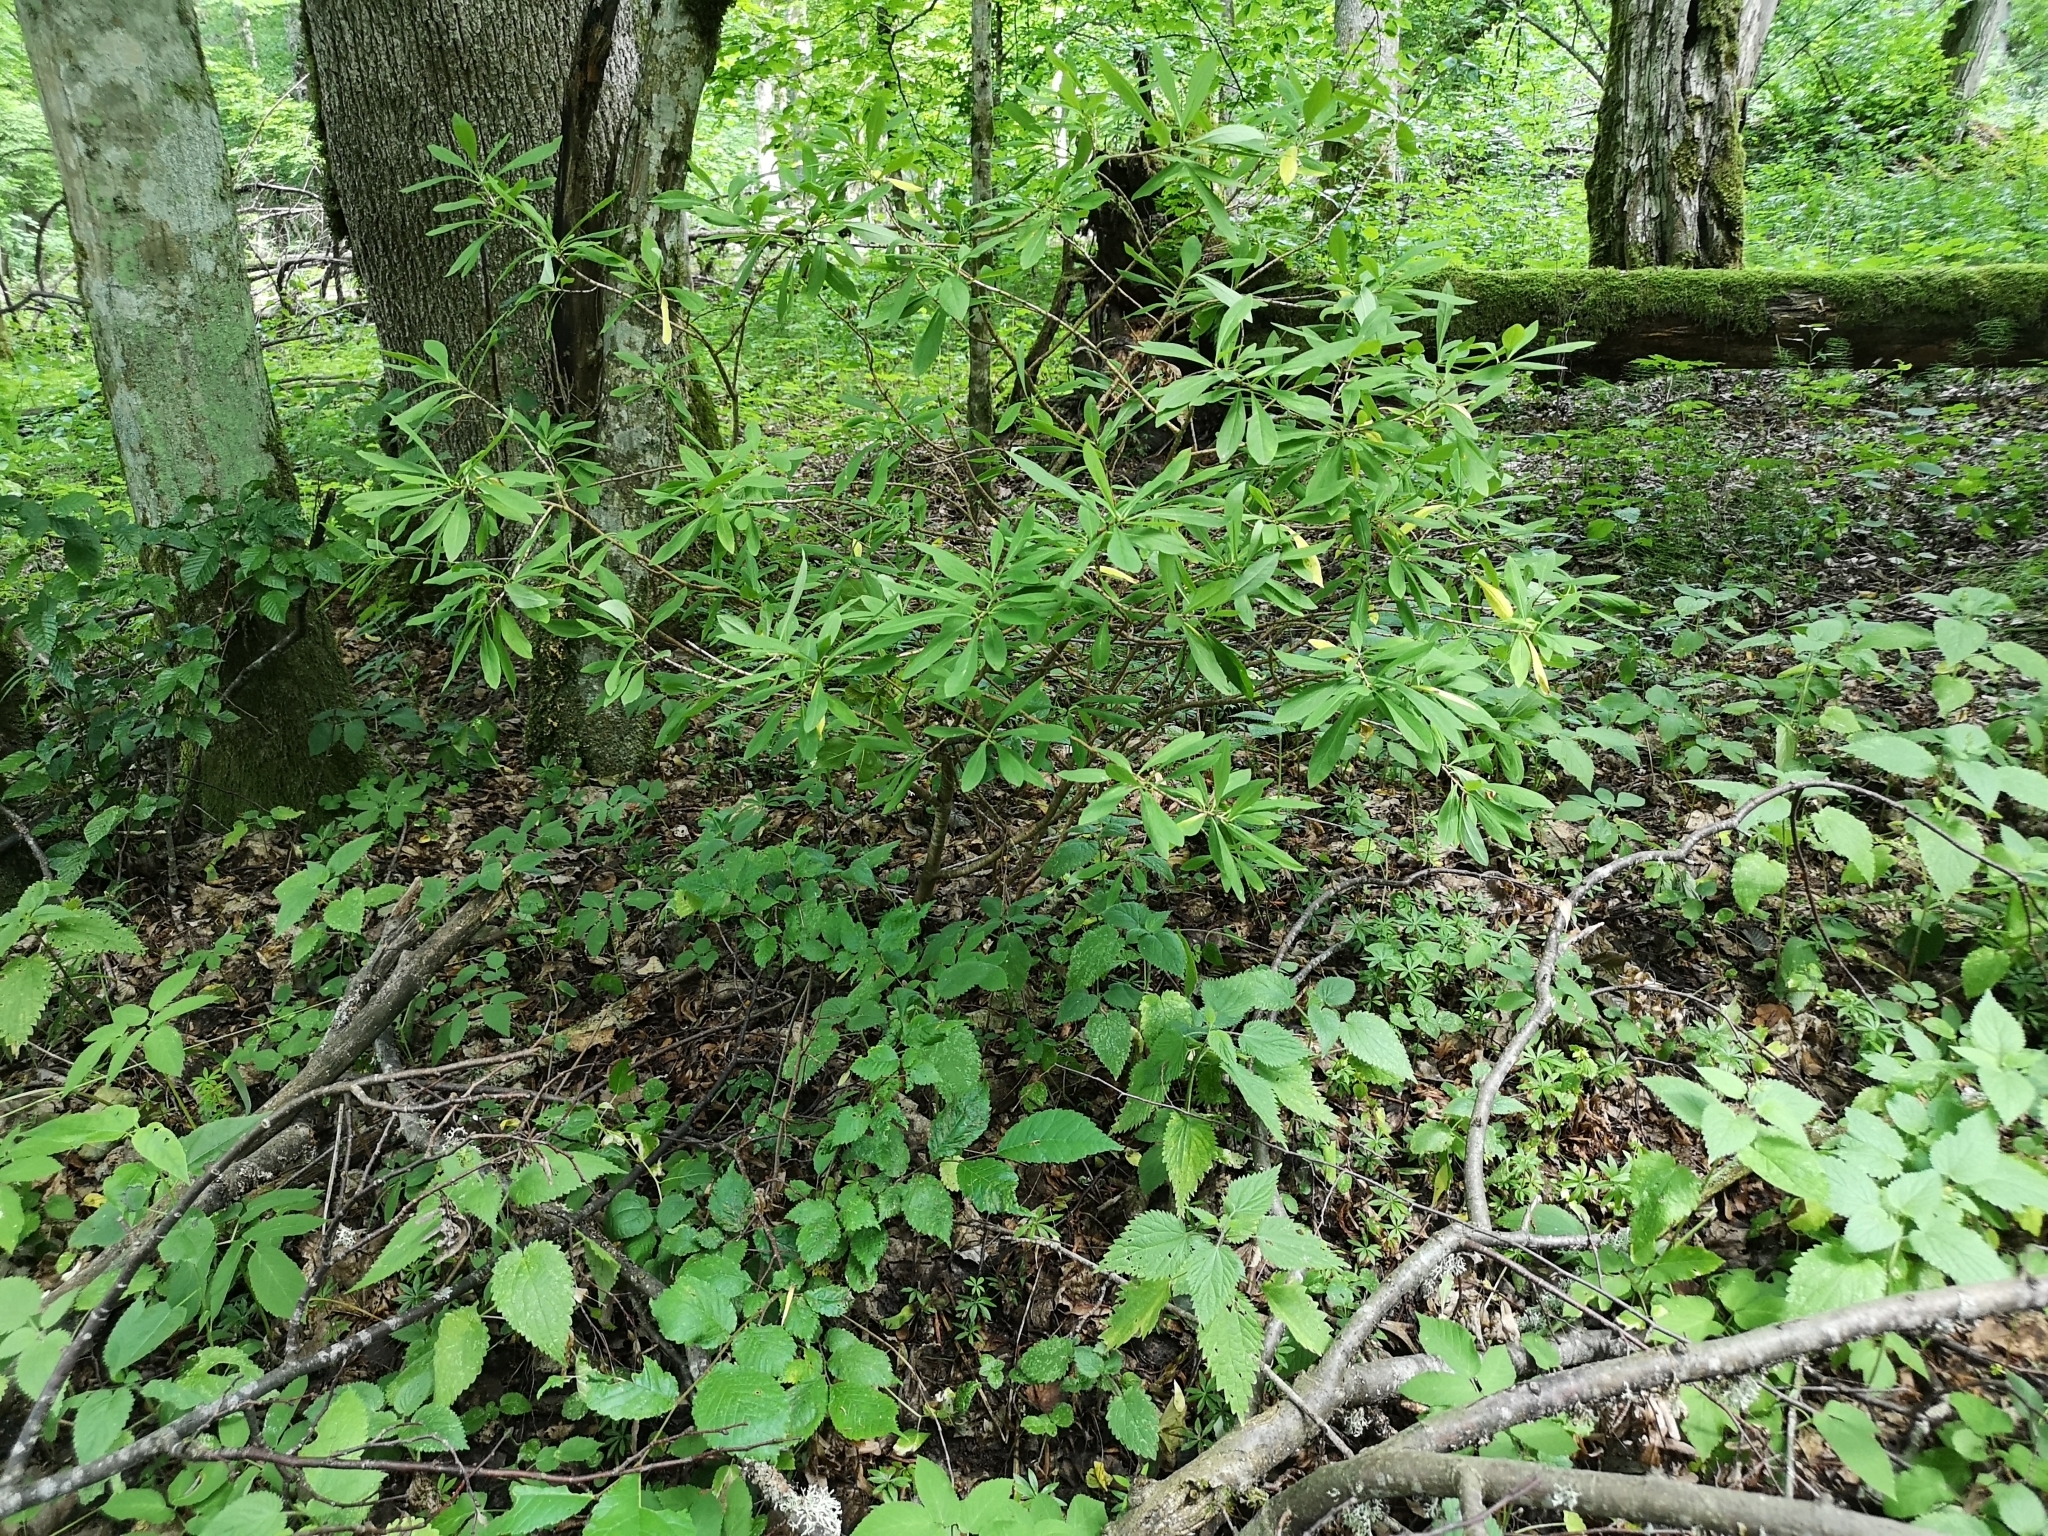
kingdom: Plantae
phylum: Tracheophyta
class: Magnoliopsida
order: Malvales
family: Thymelaeaceae
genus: Daphne
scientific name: Daphne mezereum
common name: Mezereon
